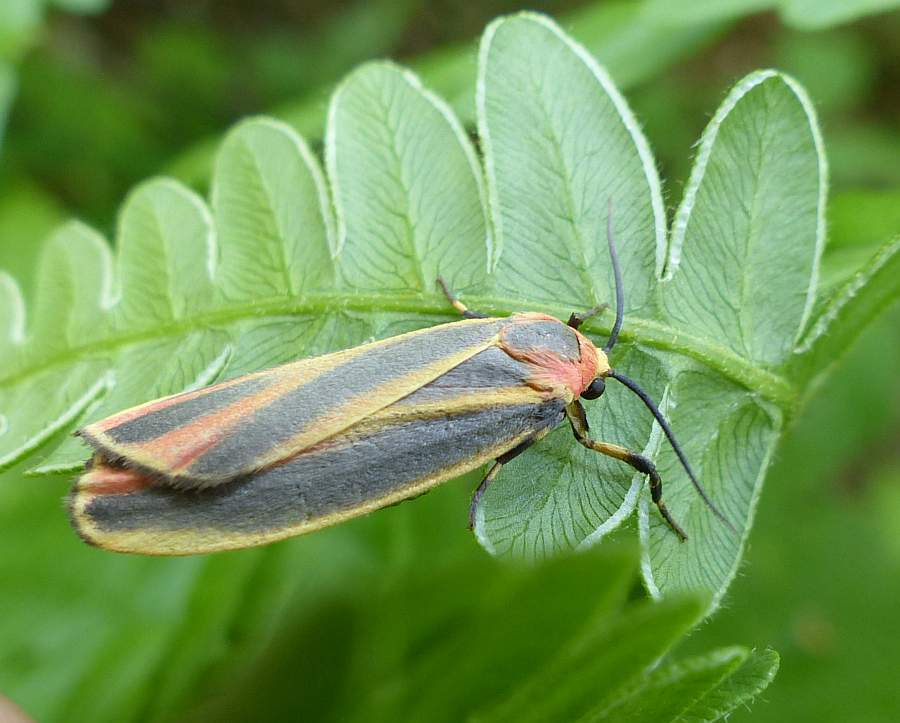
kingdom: Animalia
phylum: Arthropoda
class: Insecta
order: Lepidoptera
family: Erebidae
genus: Hypoprepia
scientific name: Hypoprepia fucosa
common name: Painted lichen moth
